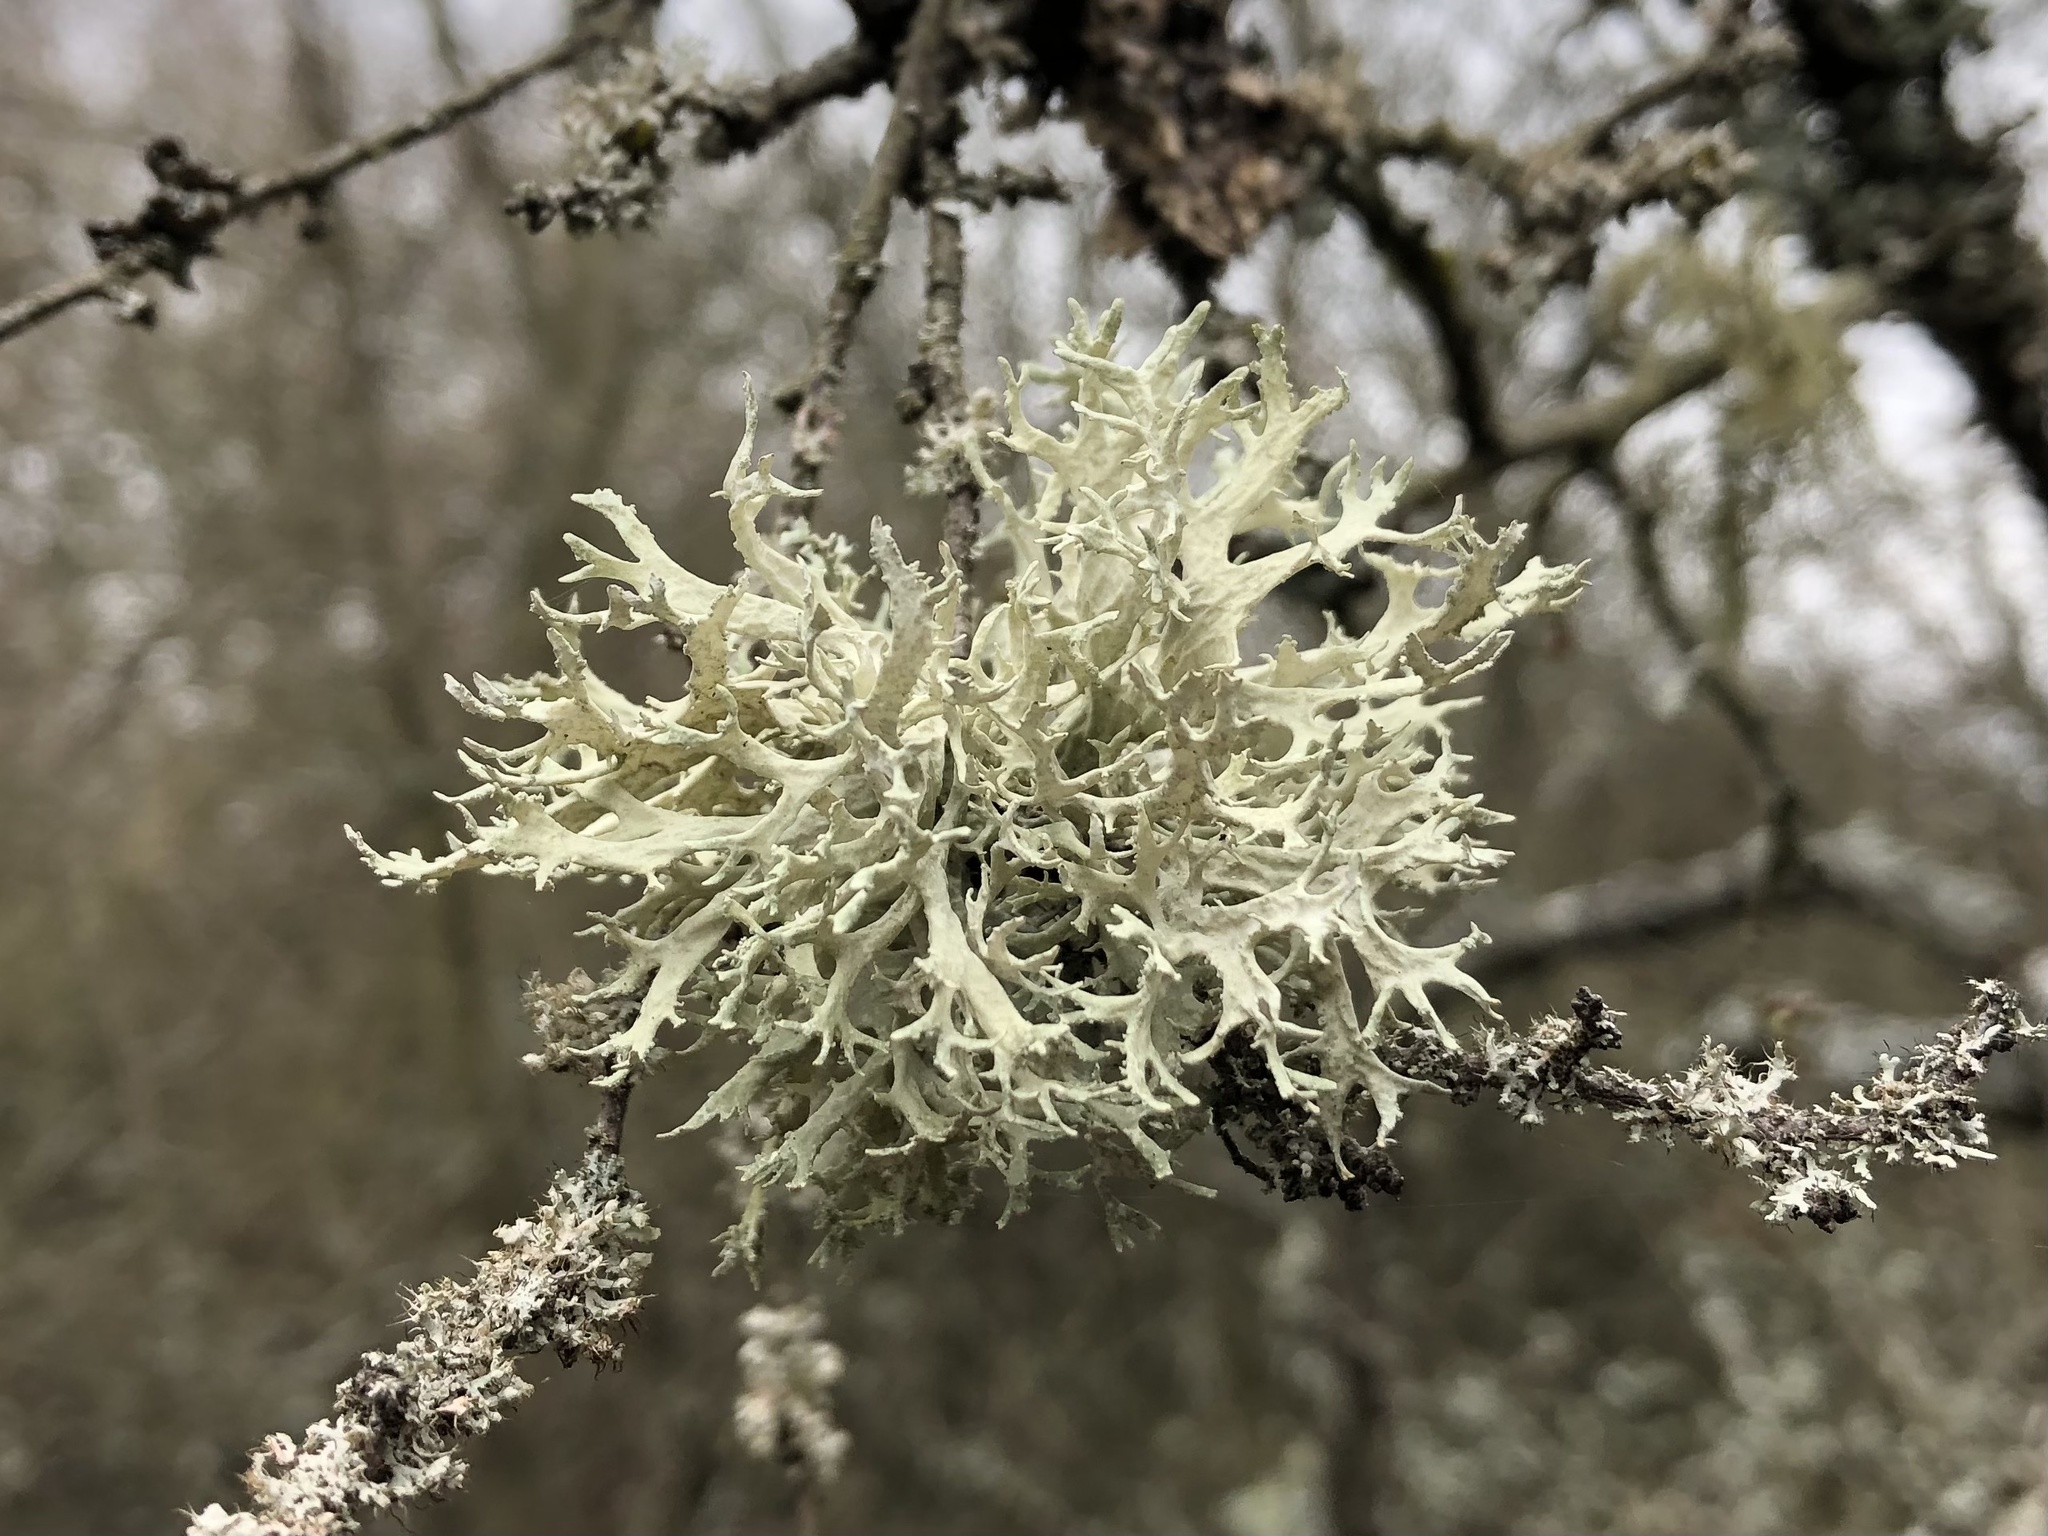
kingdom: Fungi
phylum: Ascomycota
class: Lecanoromycetes
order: Lecanorales
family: Parmeliaceae
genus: Evernia
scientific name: Evernia prunastri
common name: Oak moss
